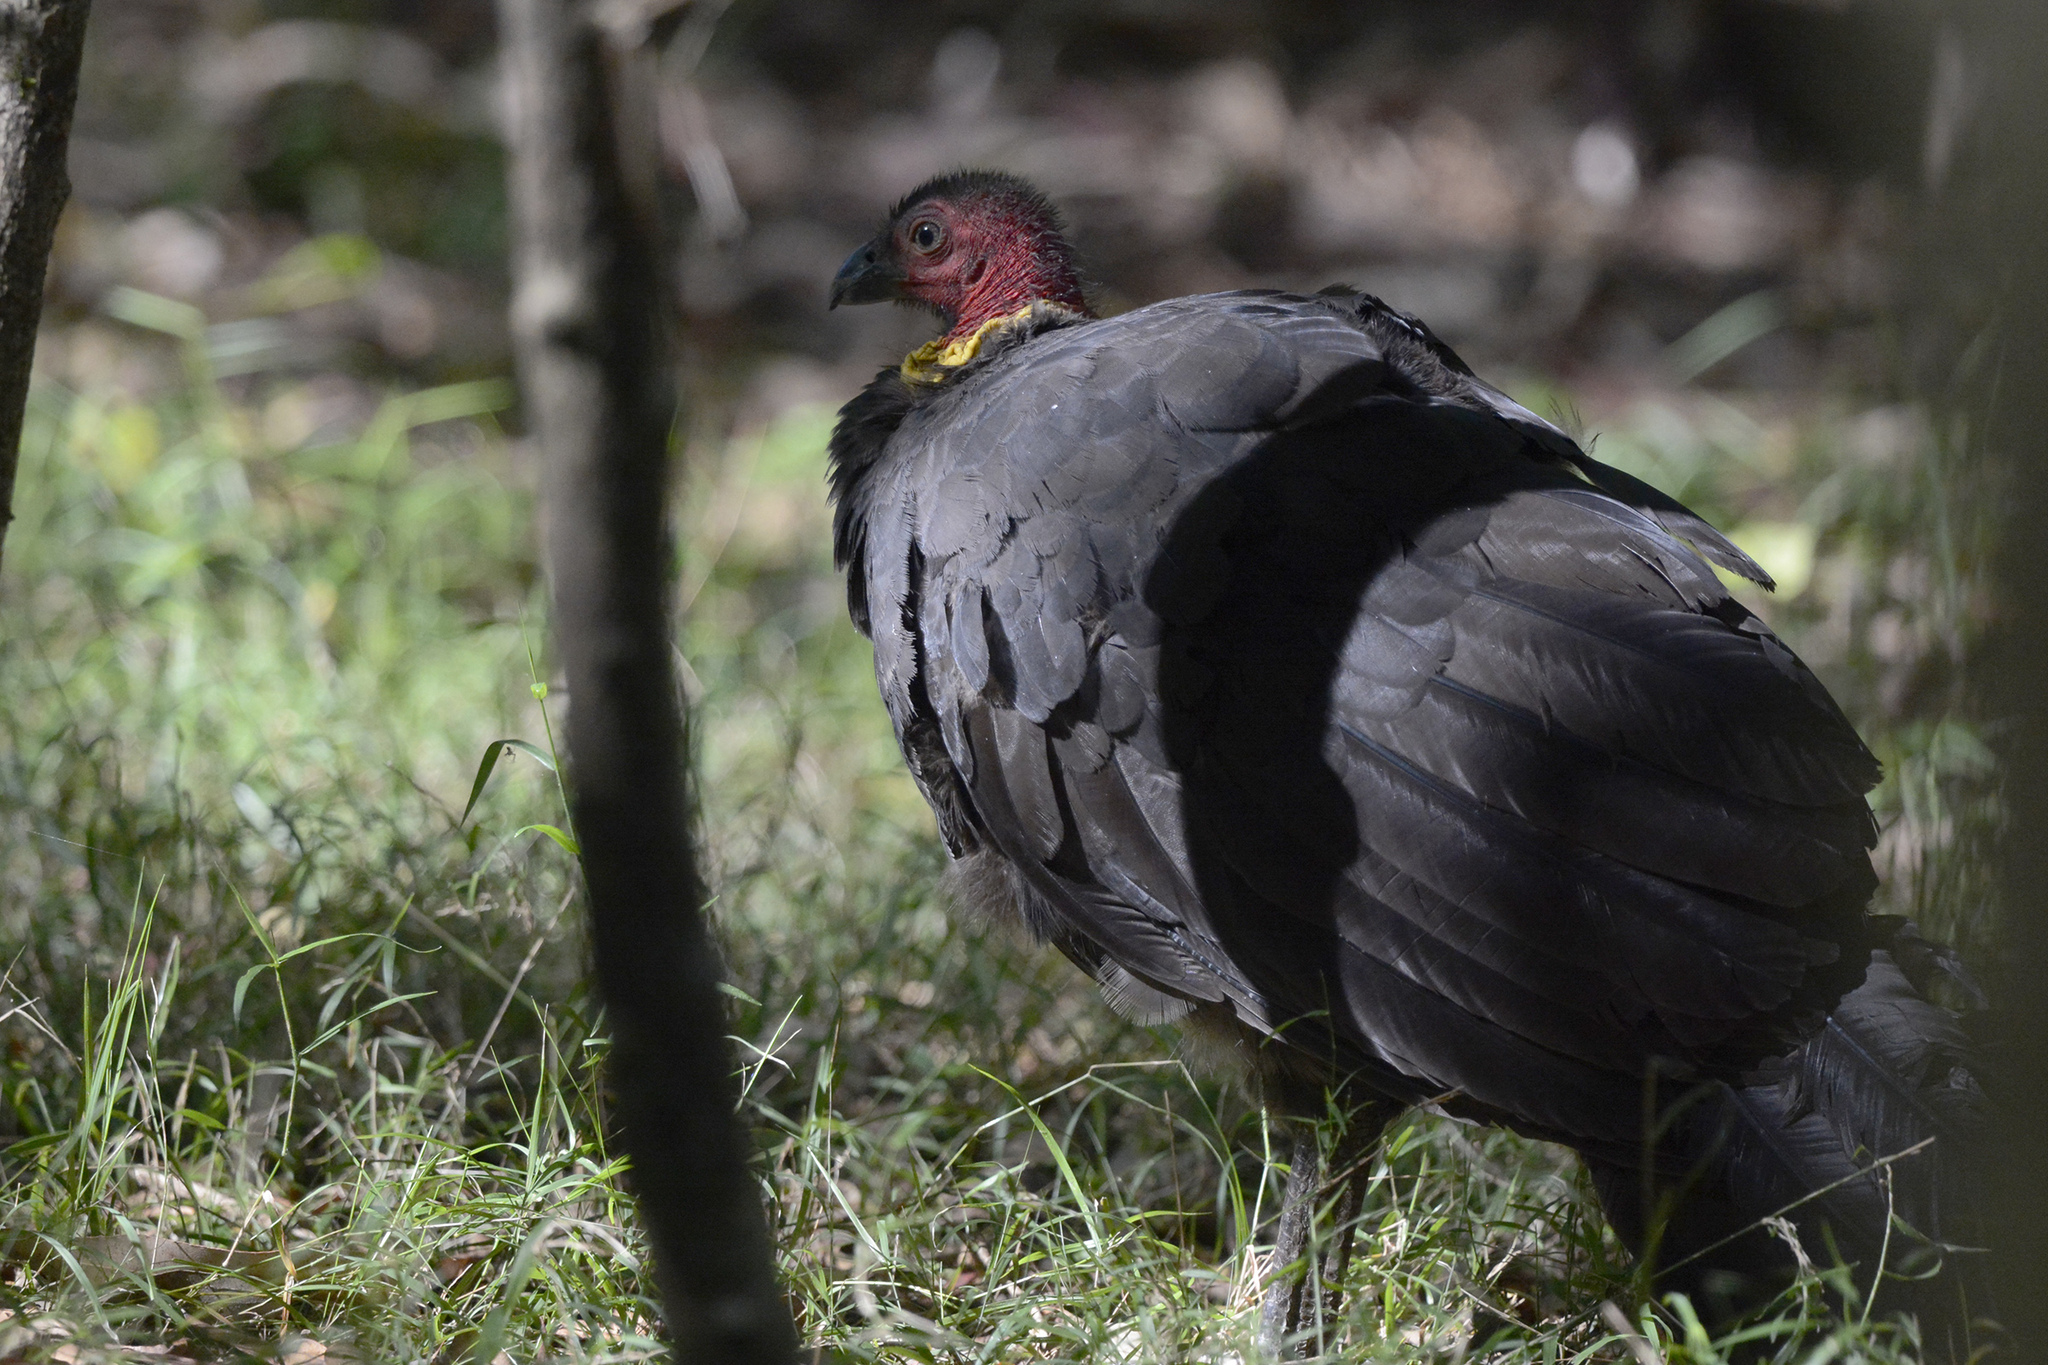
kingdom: Animalia
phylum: Chordata
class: Aves
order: Galliformes
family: Megapodiidae
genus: Alectura
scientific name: Alectura lathami
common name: Australian brushturkey
